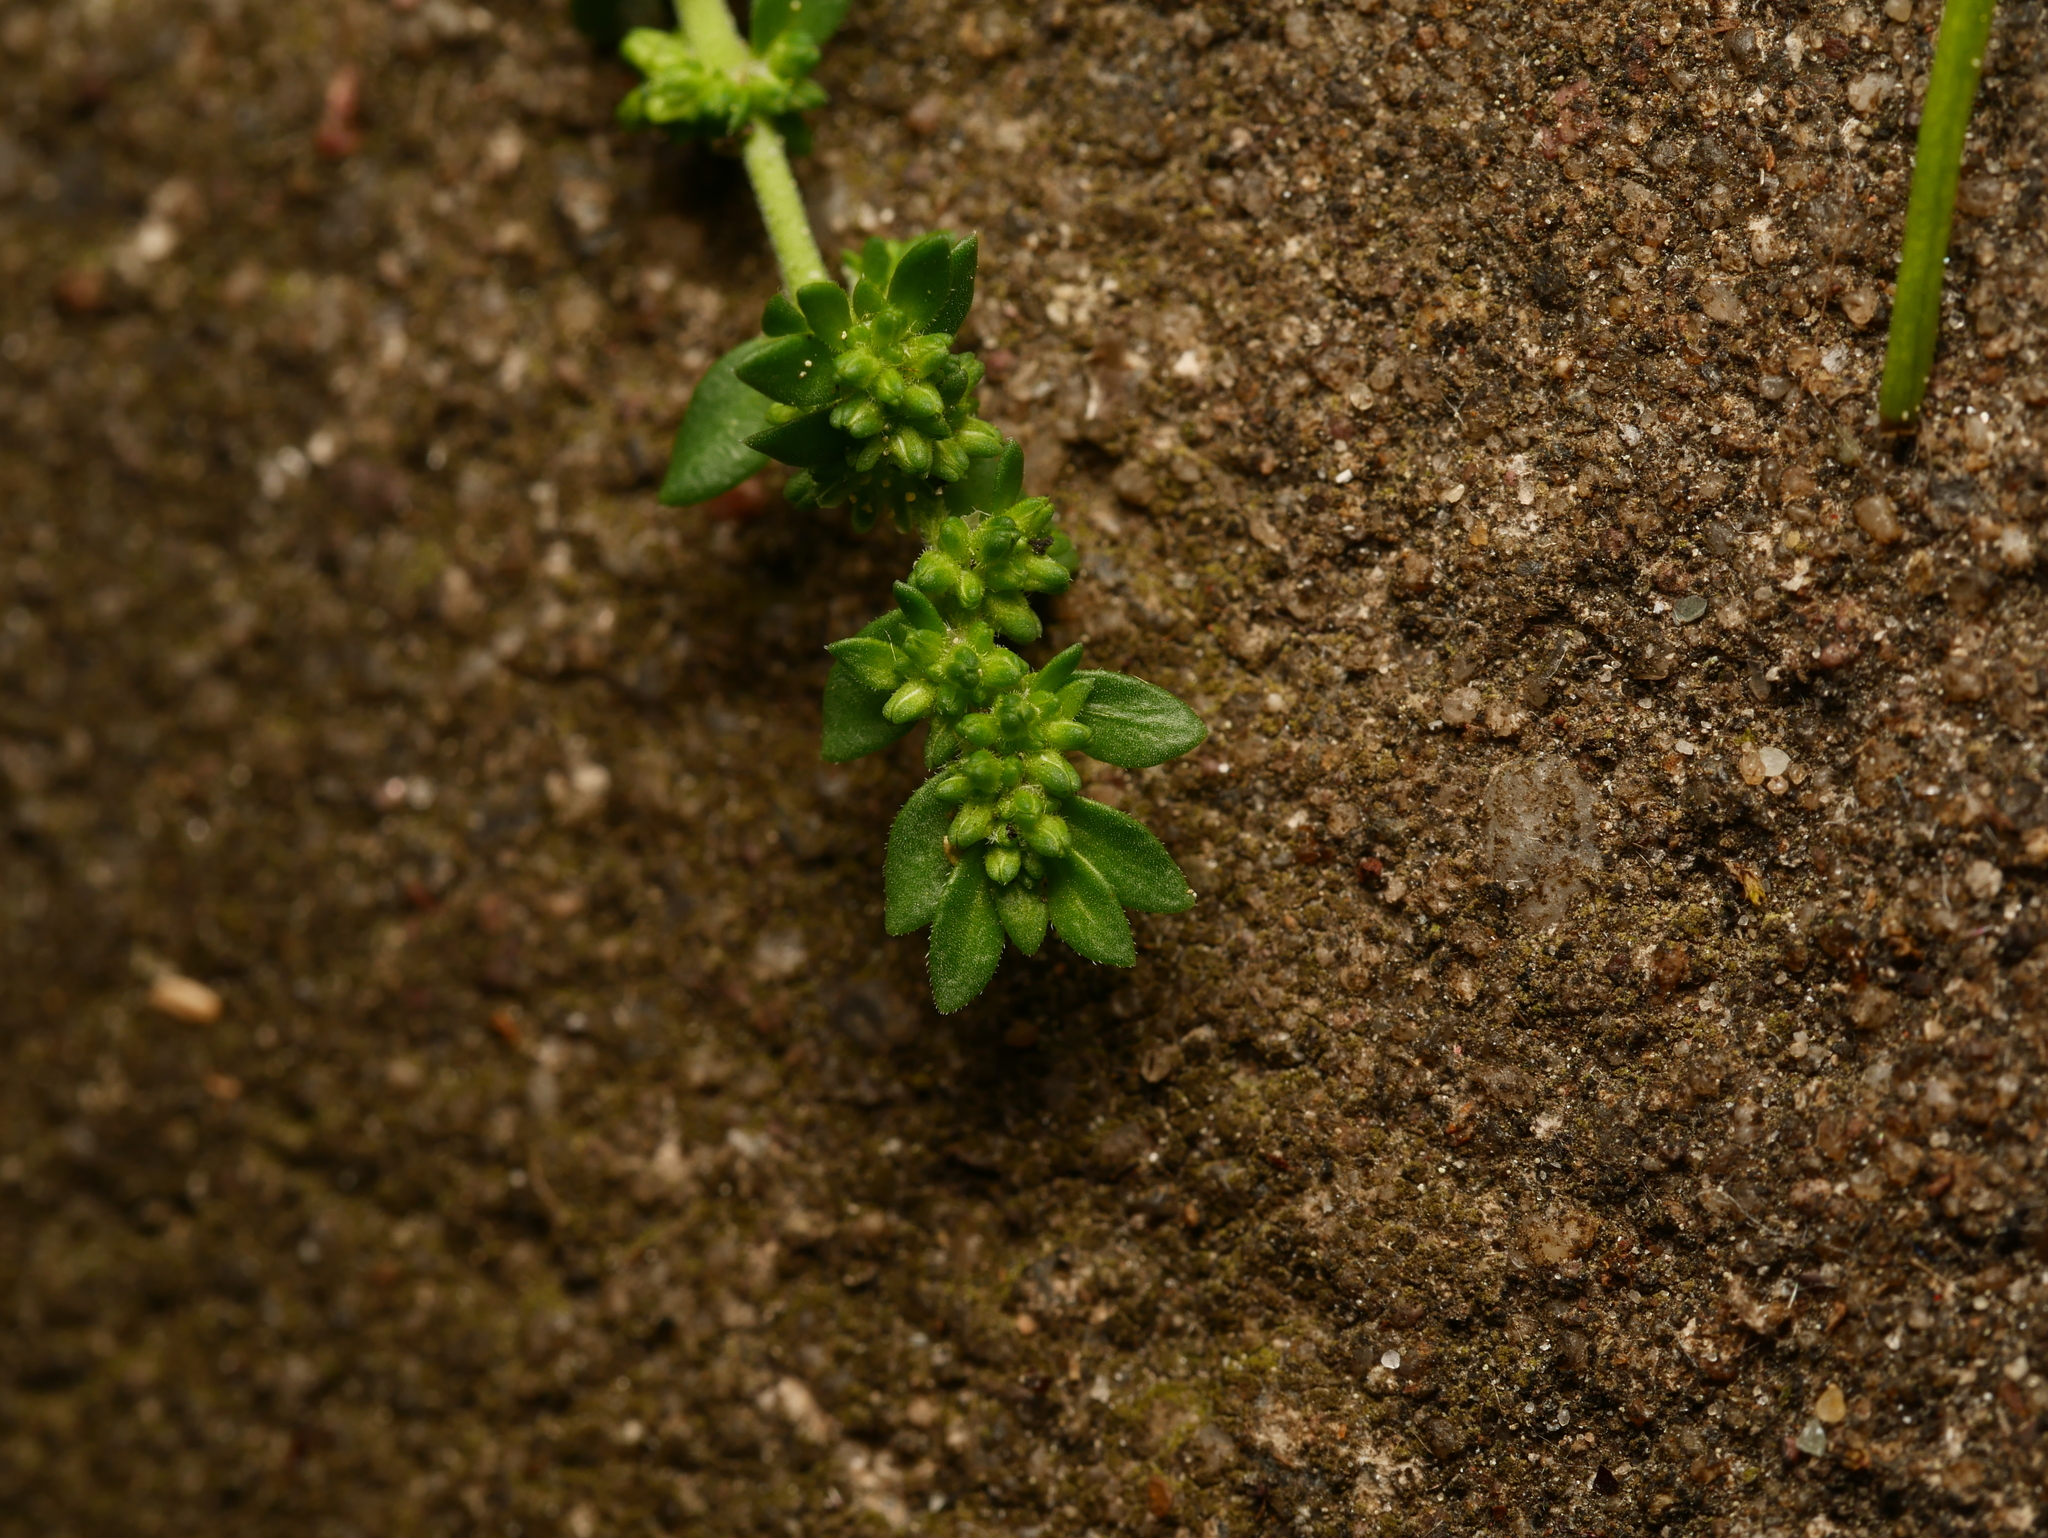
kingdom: Plantae
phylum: Tracheophyta
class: Magnoliopsida
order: Caryophyllales
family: Caryophyllaceae
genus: Herniaria
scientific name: Herniaria glabra
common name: Smooth rupturewort
